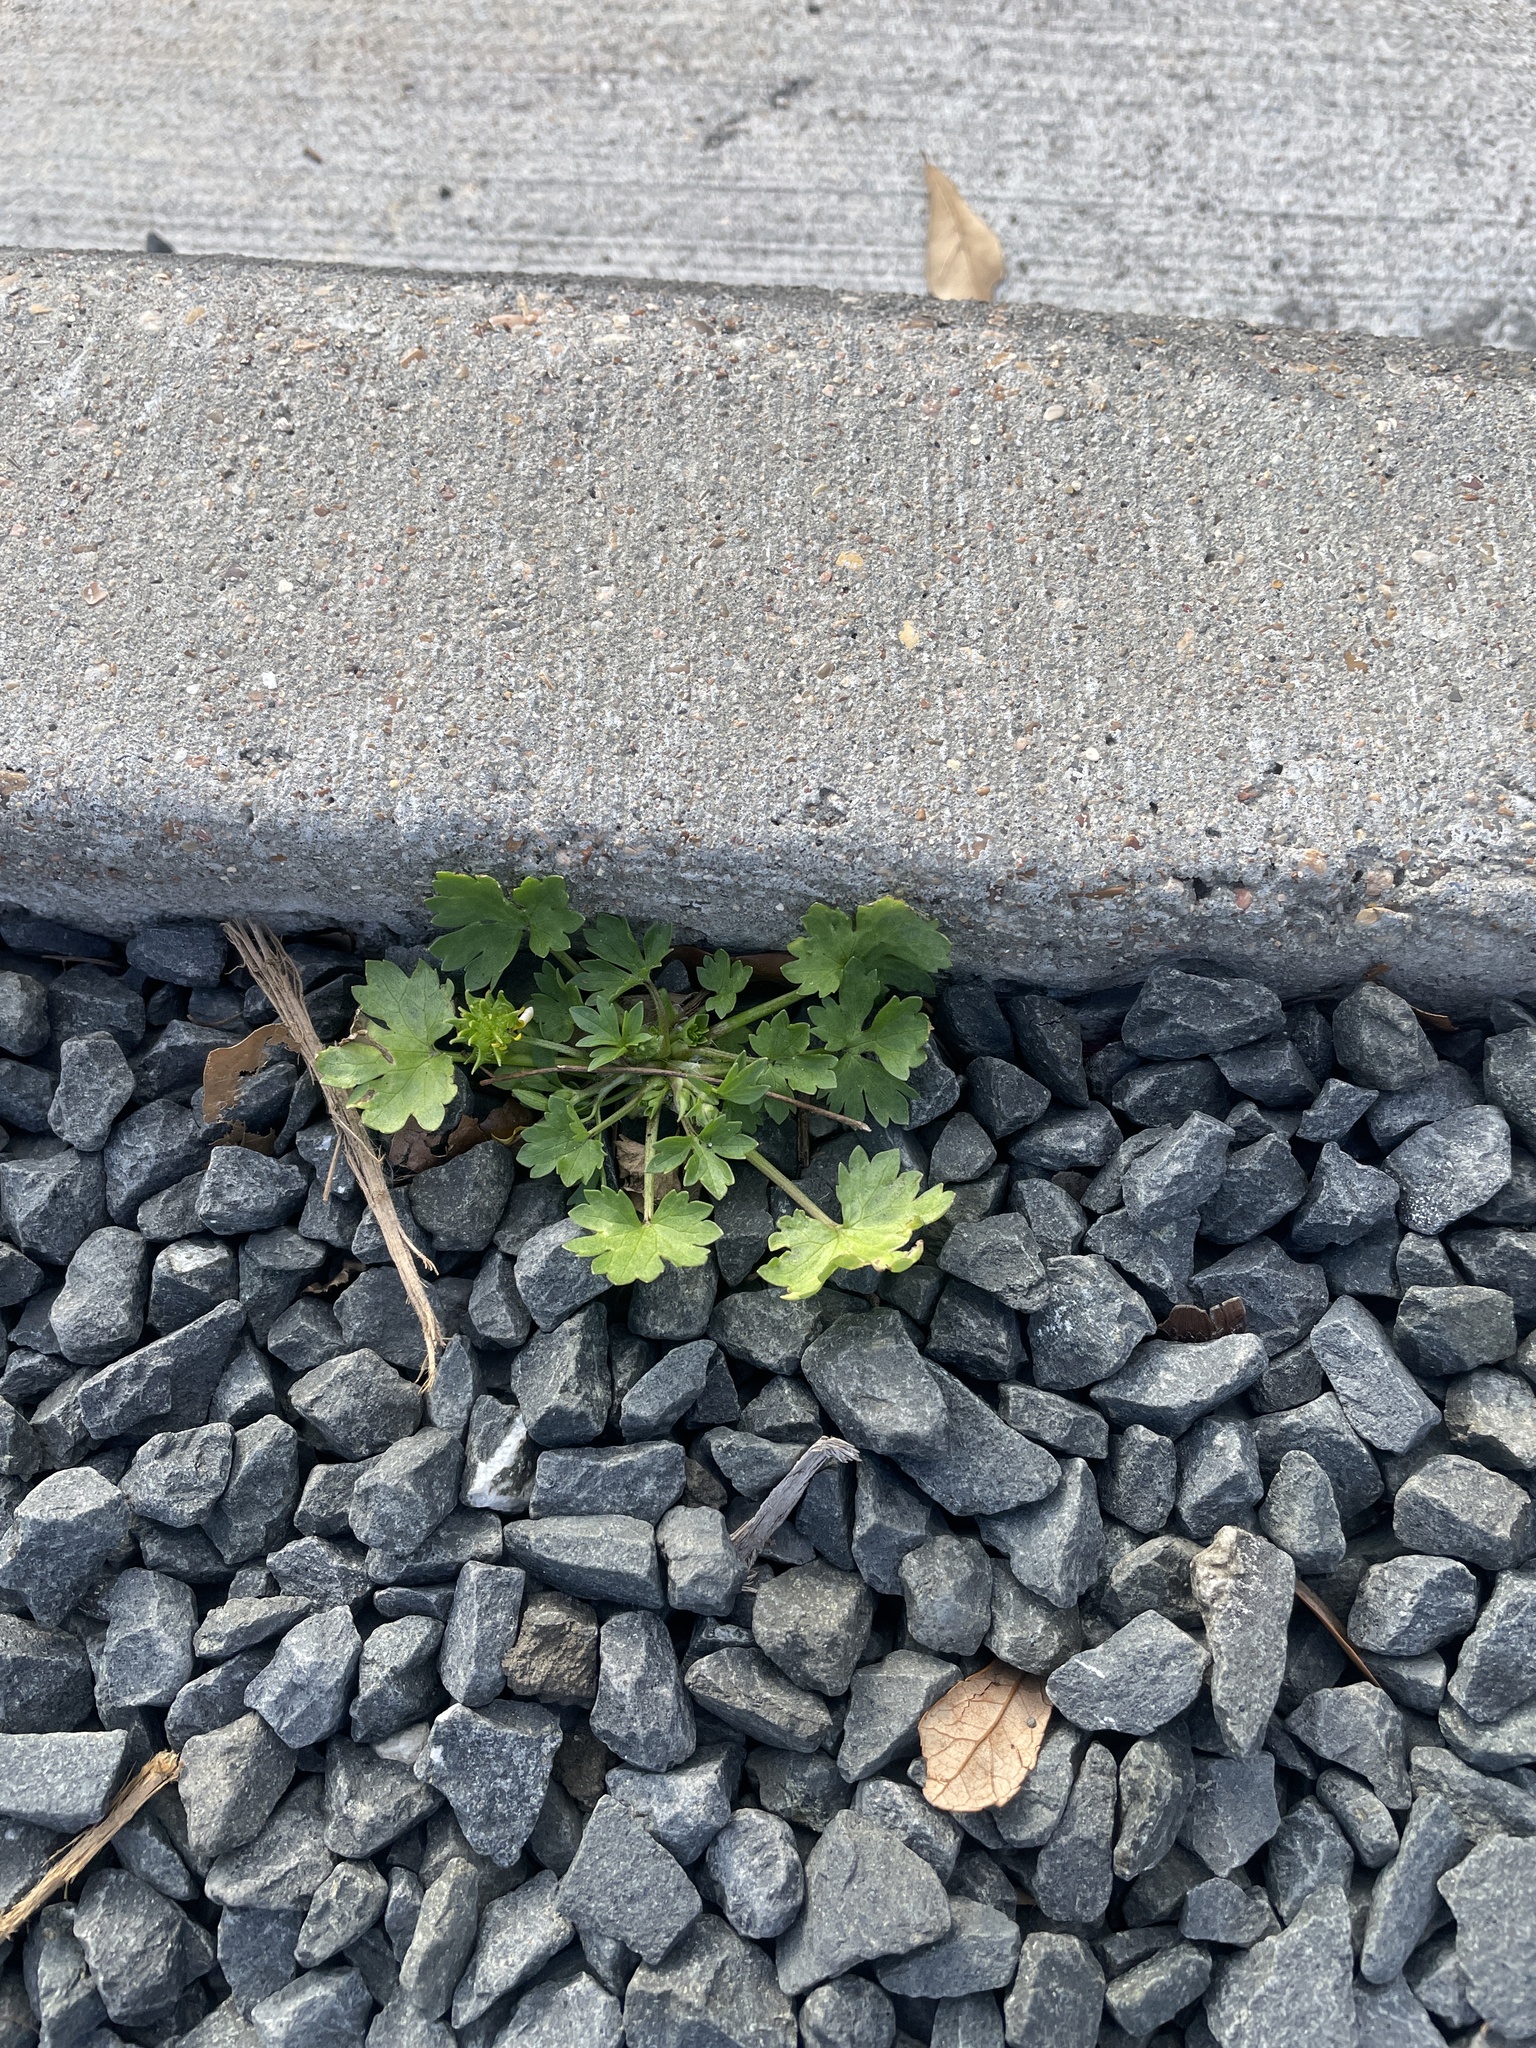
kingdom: Plantae
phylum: Tracheophyta
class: Magnoliopsida
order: Ranunculales
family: Ranunculaceae
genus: Ranunculus
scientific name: Ranunculus muricatus
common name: Rough-fruited buttercup
